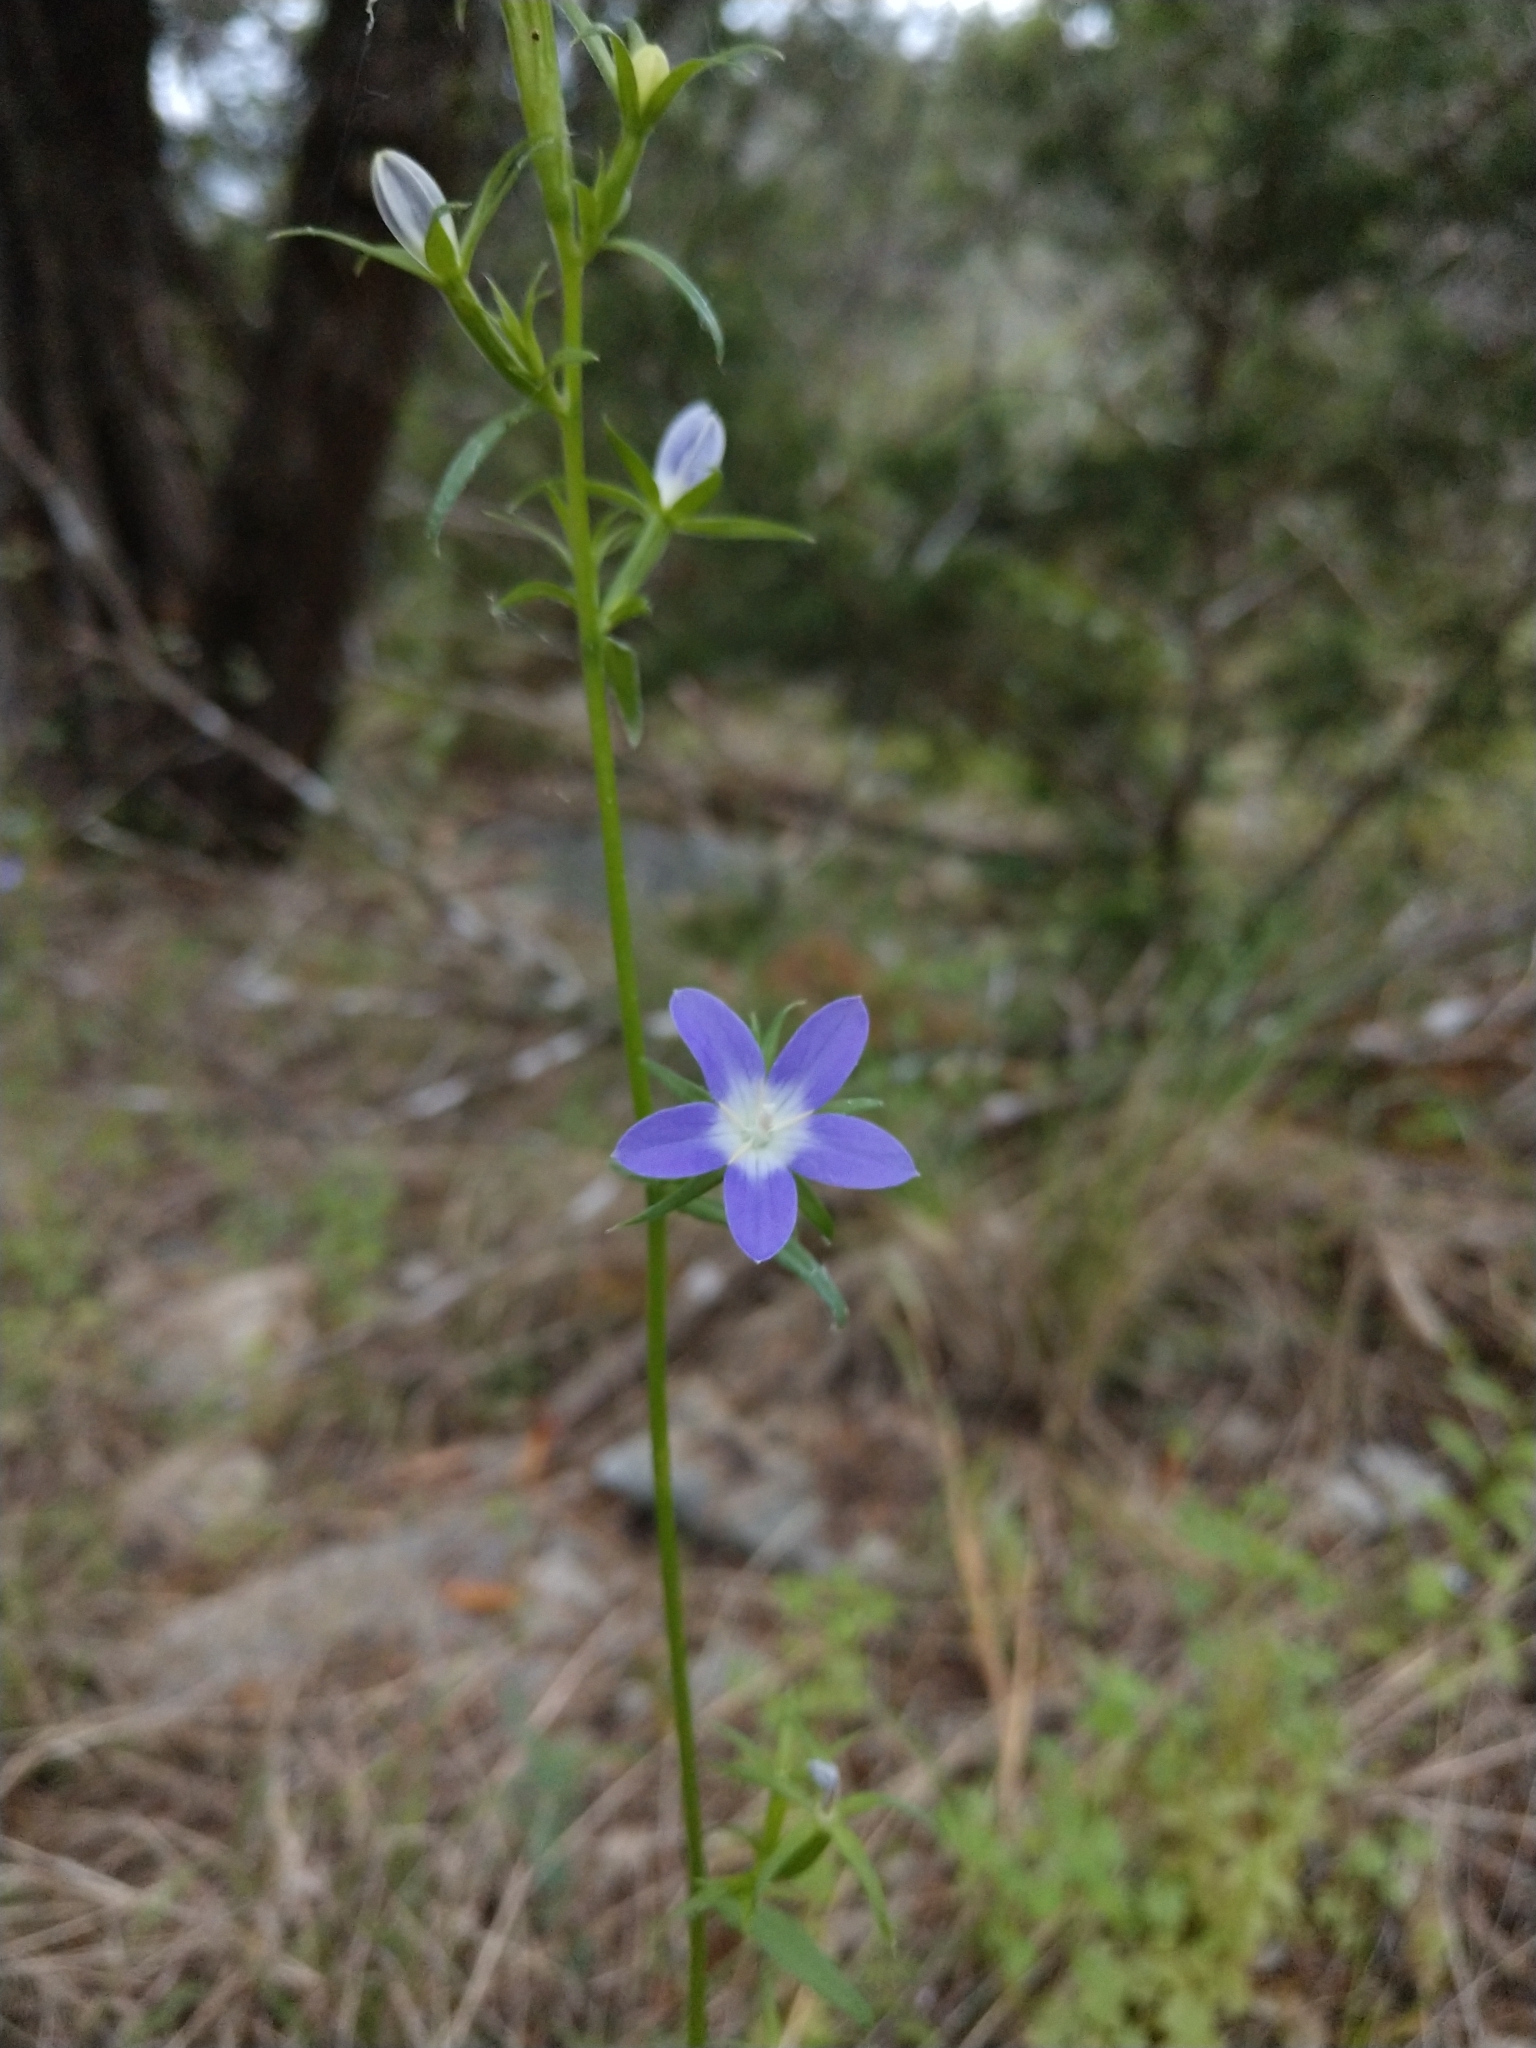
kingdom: Plantae
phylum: Tracheophyta
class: Magnoliopsida
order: Asterales
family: Campanulaceae
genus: Triodanis
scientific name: Triodanis coloradoensis
